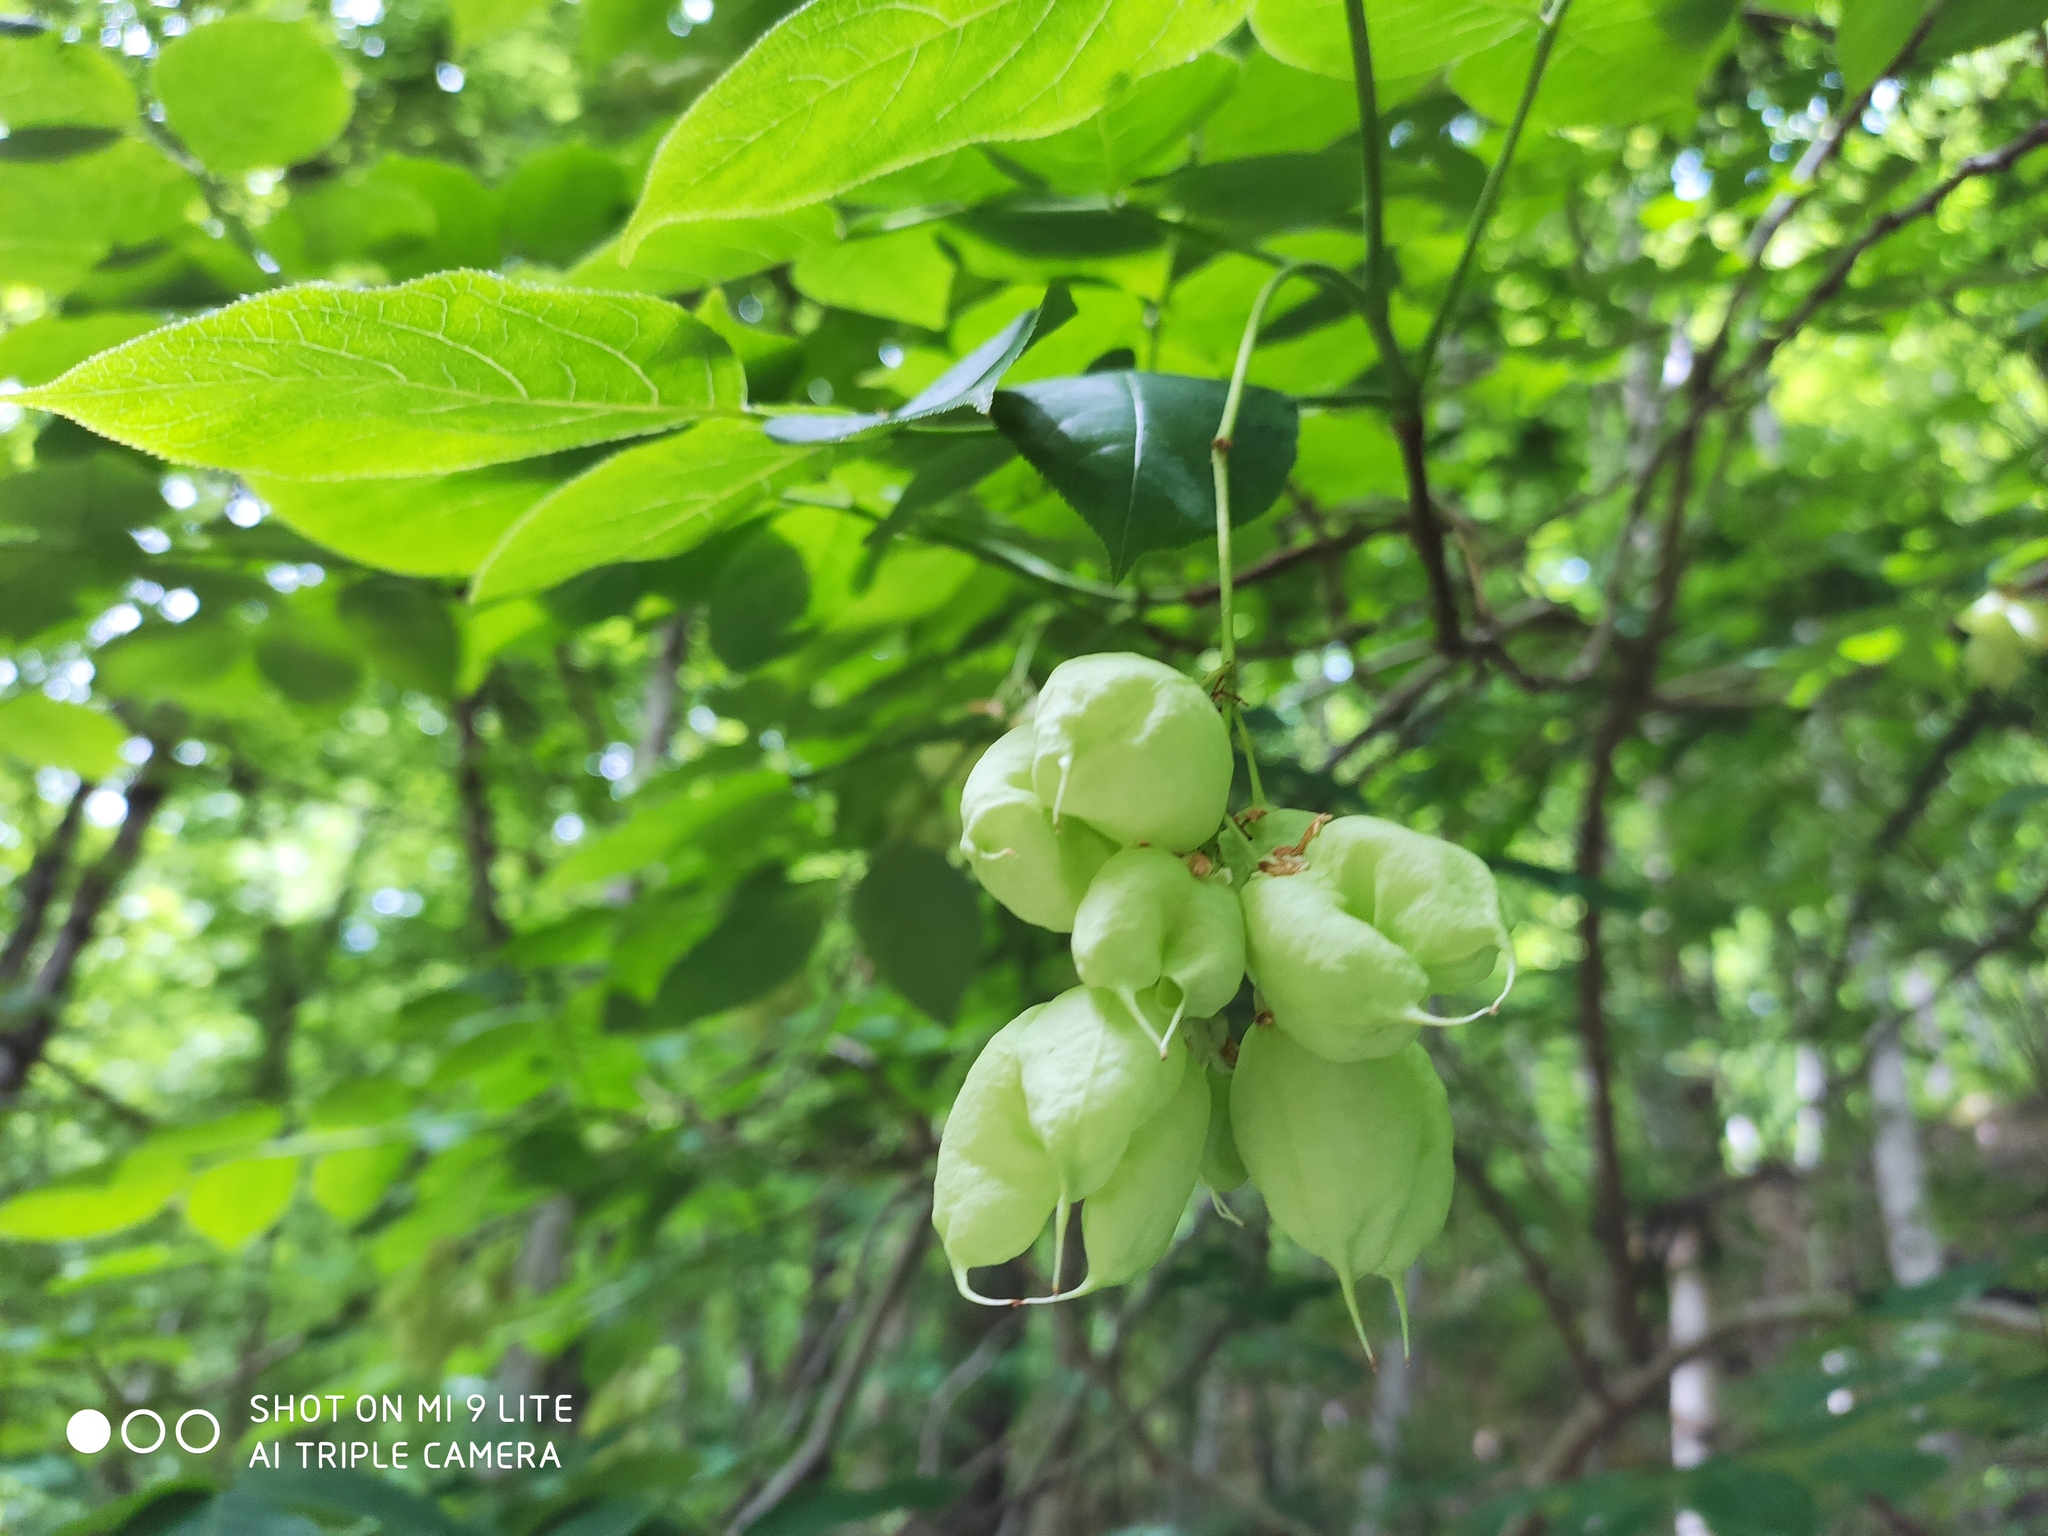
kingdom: Plantae
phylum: Tracheophyta
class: Magnoliopsida
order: Crossosomatales
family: Staphyleaceae
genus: Staphylea
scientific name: Staphylea pinnata
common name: Bladdernut
